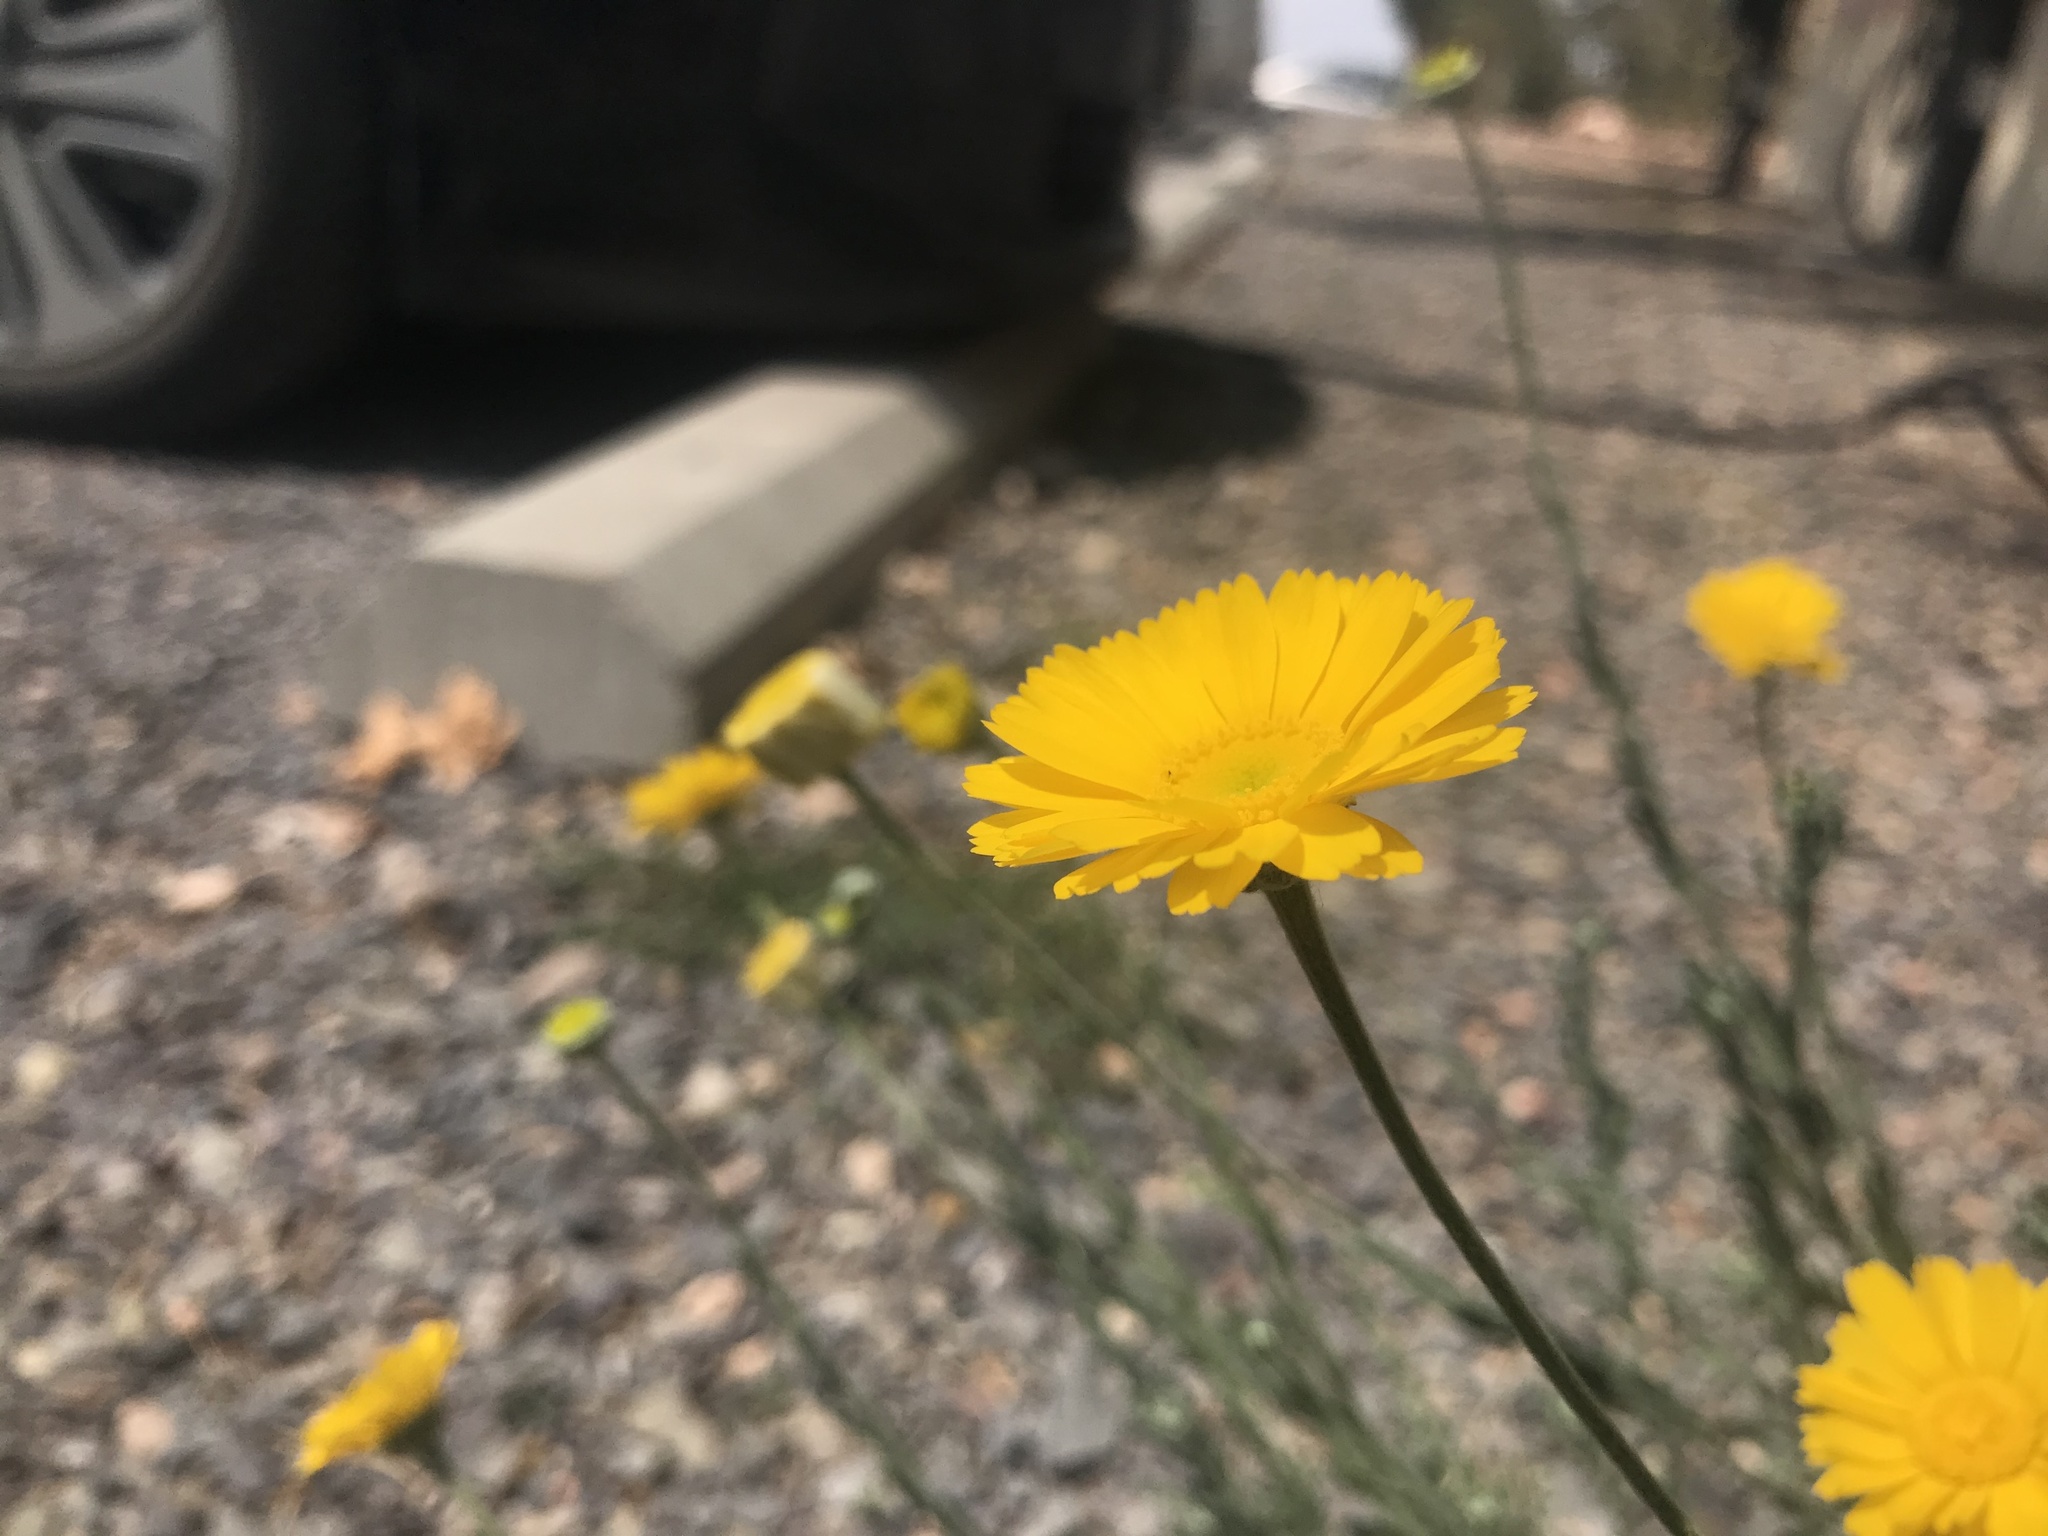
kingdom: Plantae
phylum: Tracheophyta
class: Magnoliopsida
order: Asterales
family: Asteraceae
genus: Baileya
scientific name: Baileya multiradiata
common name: Desert-marigold
